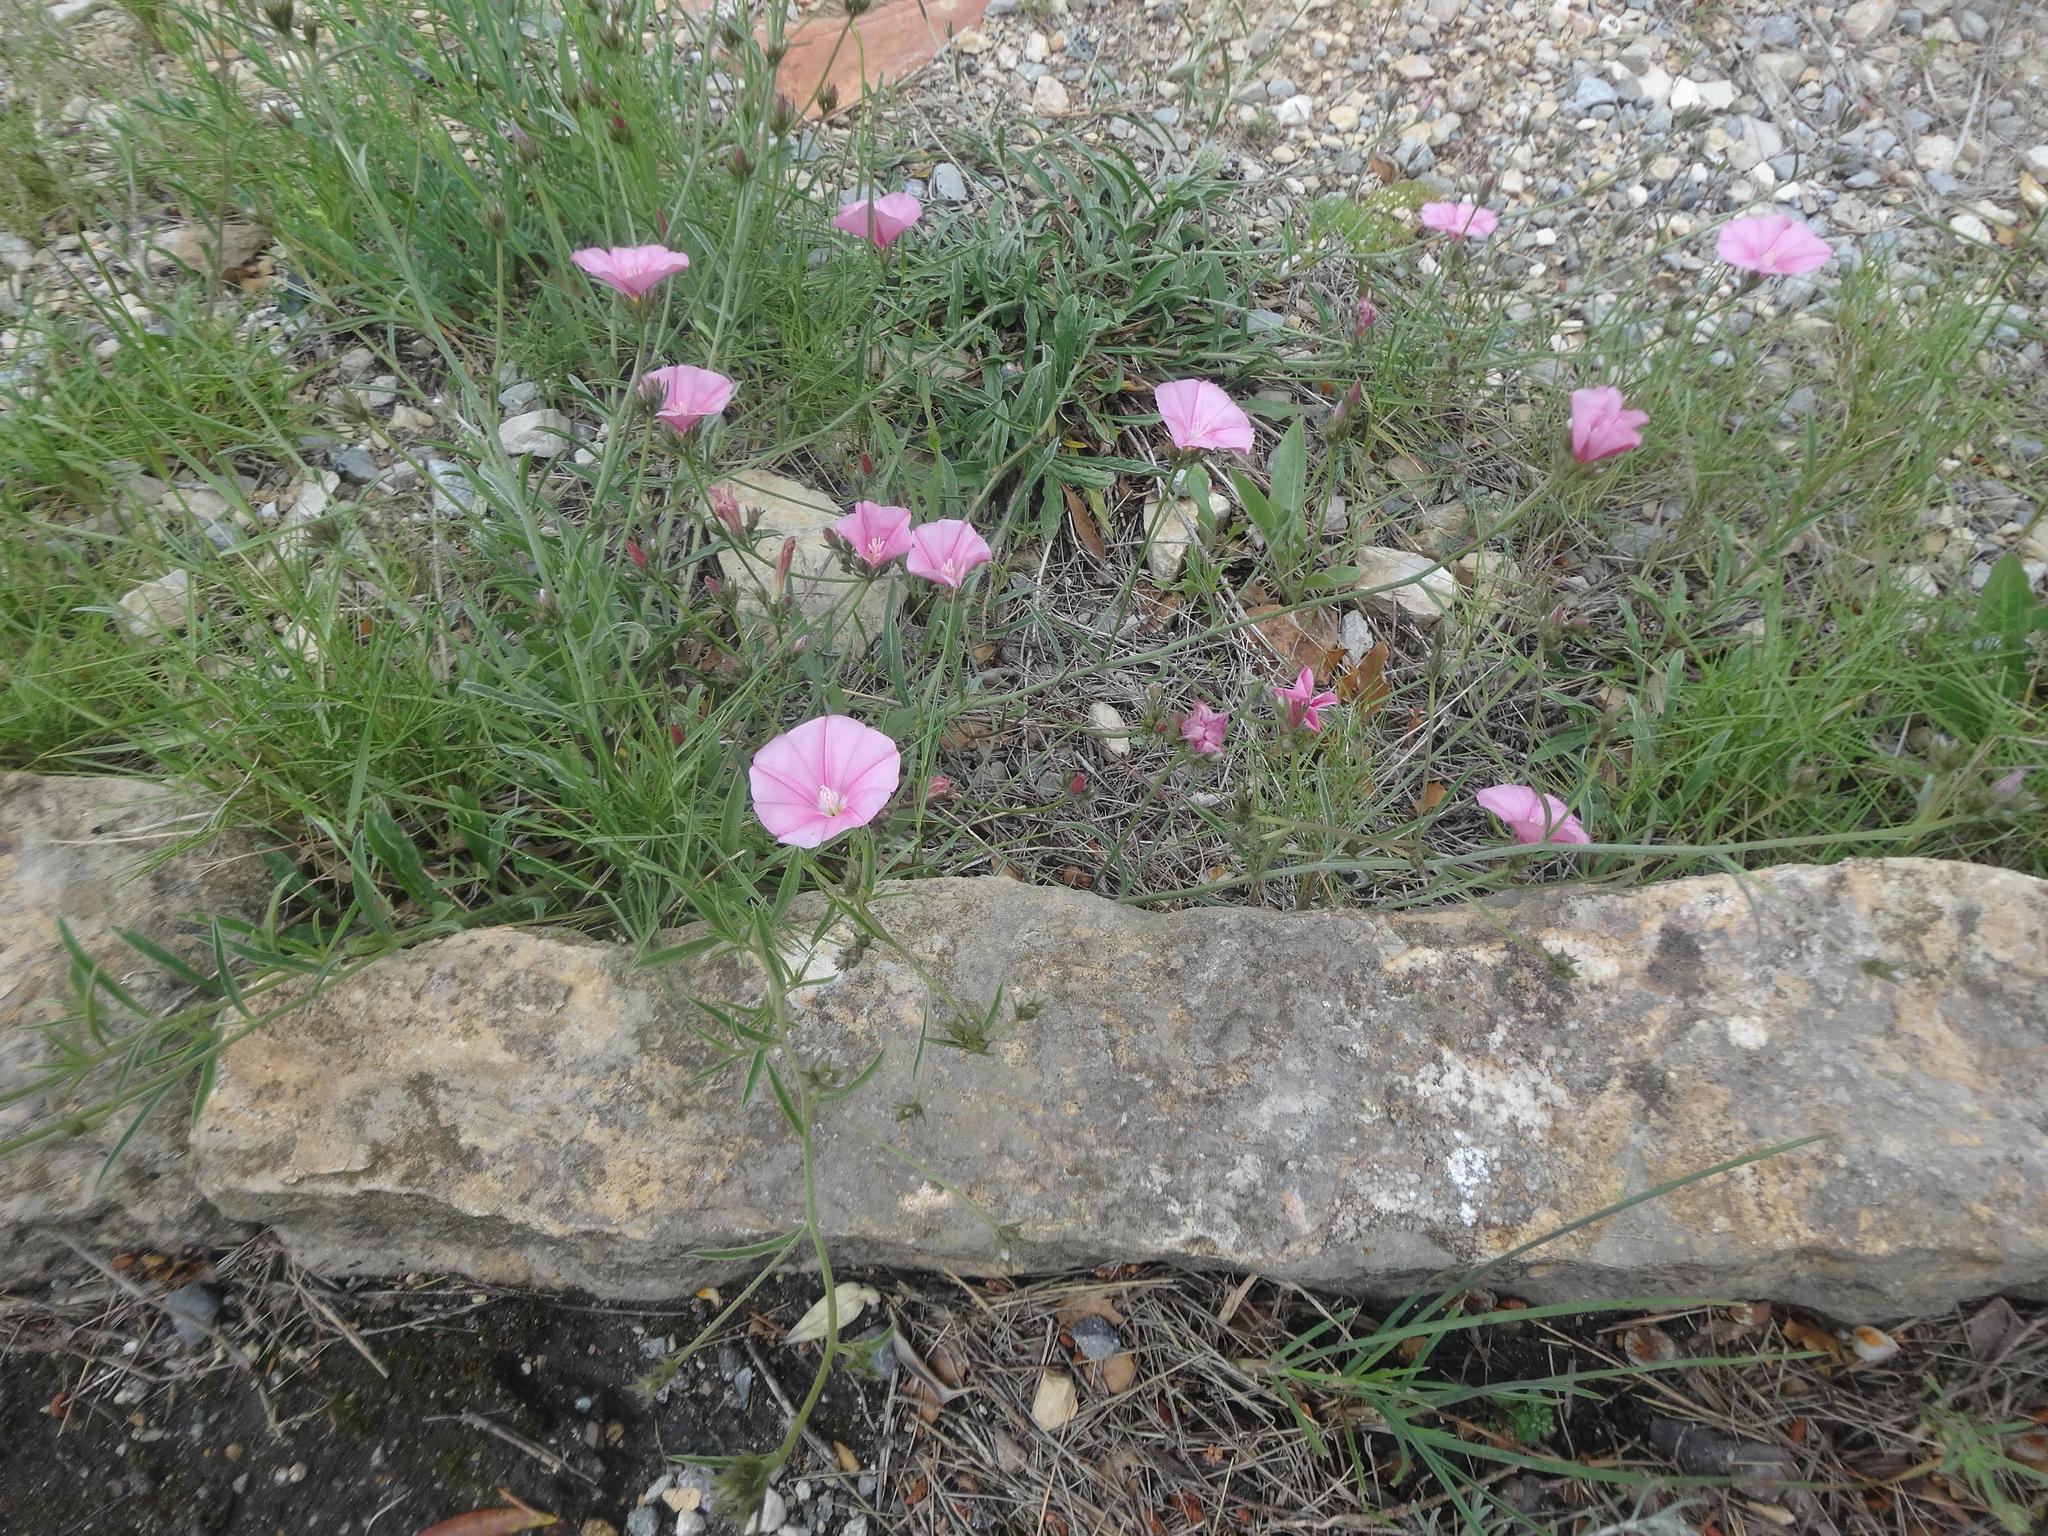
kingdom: Plantae
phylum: Tracheophyta
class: Magnoliopsida
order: Solanales
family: Convolvulaceae
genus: Convolvulus
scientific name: Convolvulus cantabrica
